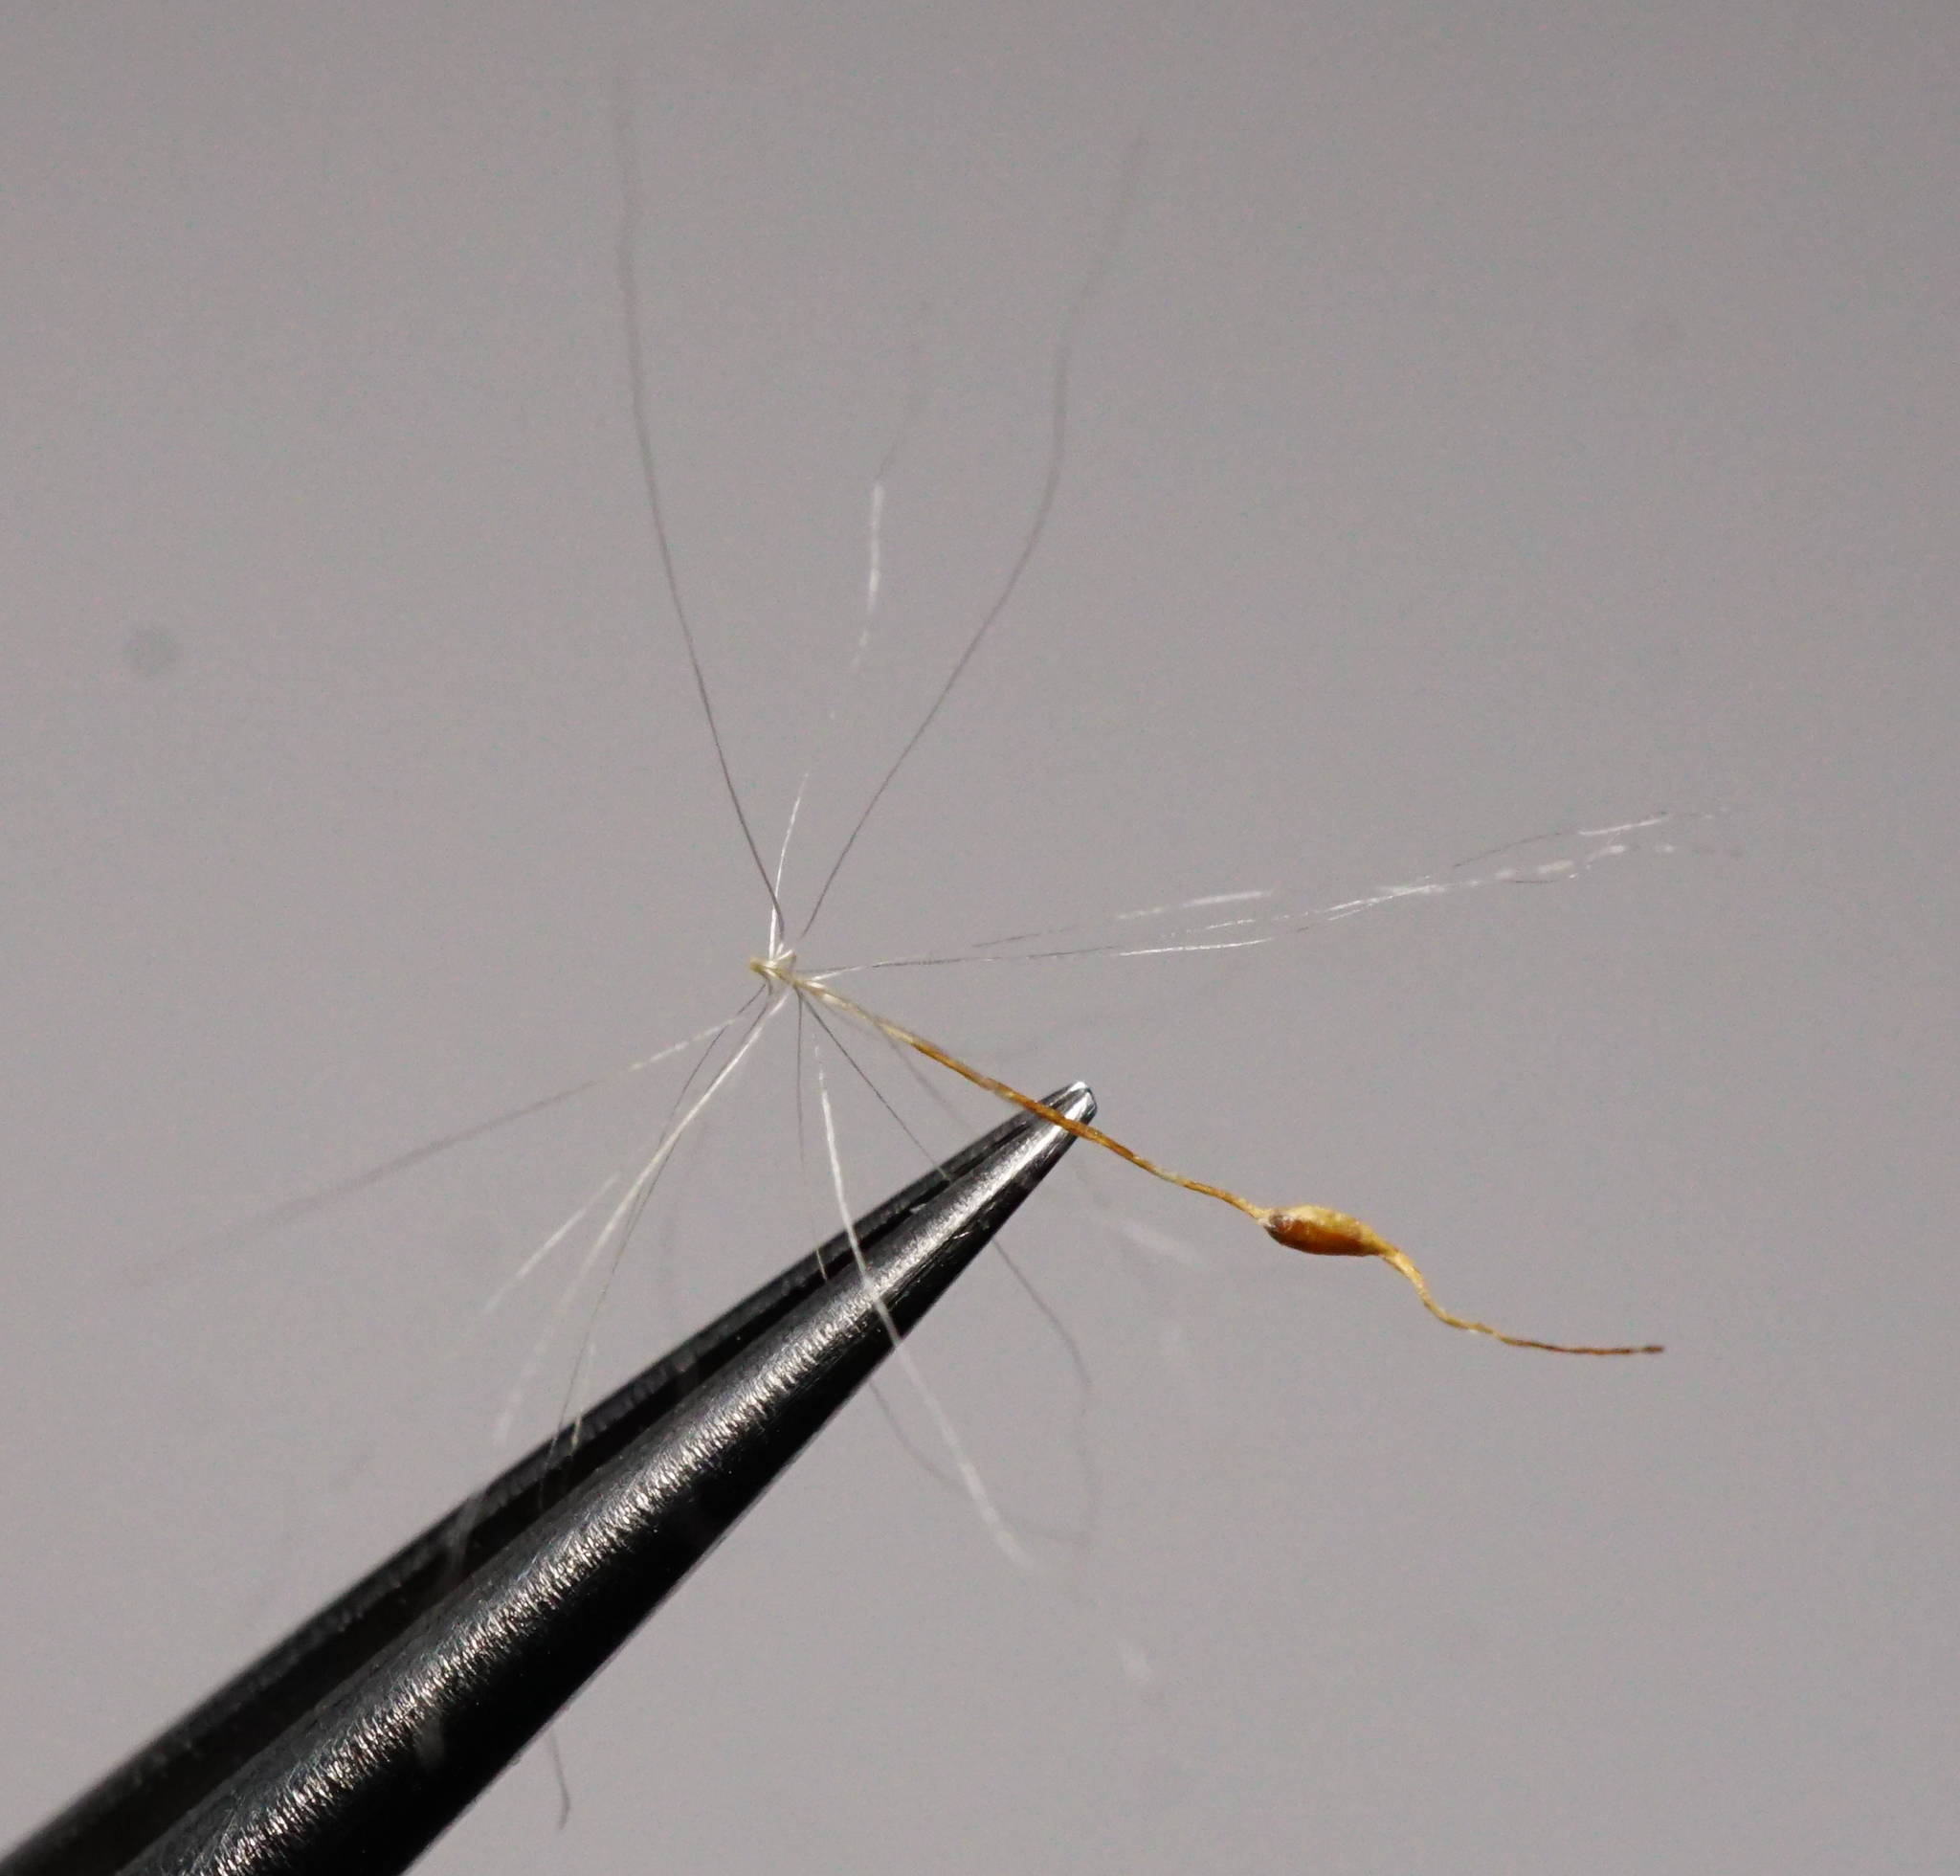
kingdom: Plantae
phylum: Tracheophyta
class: Liliopsida
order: Poales
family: Typhaceae
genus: Typha
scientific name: Typha shuttleworthii
